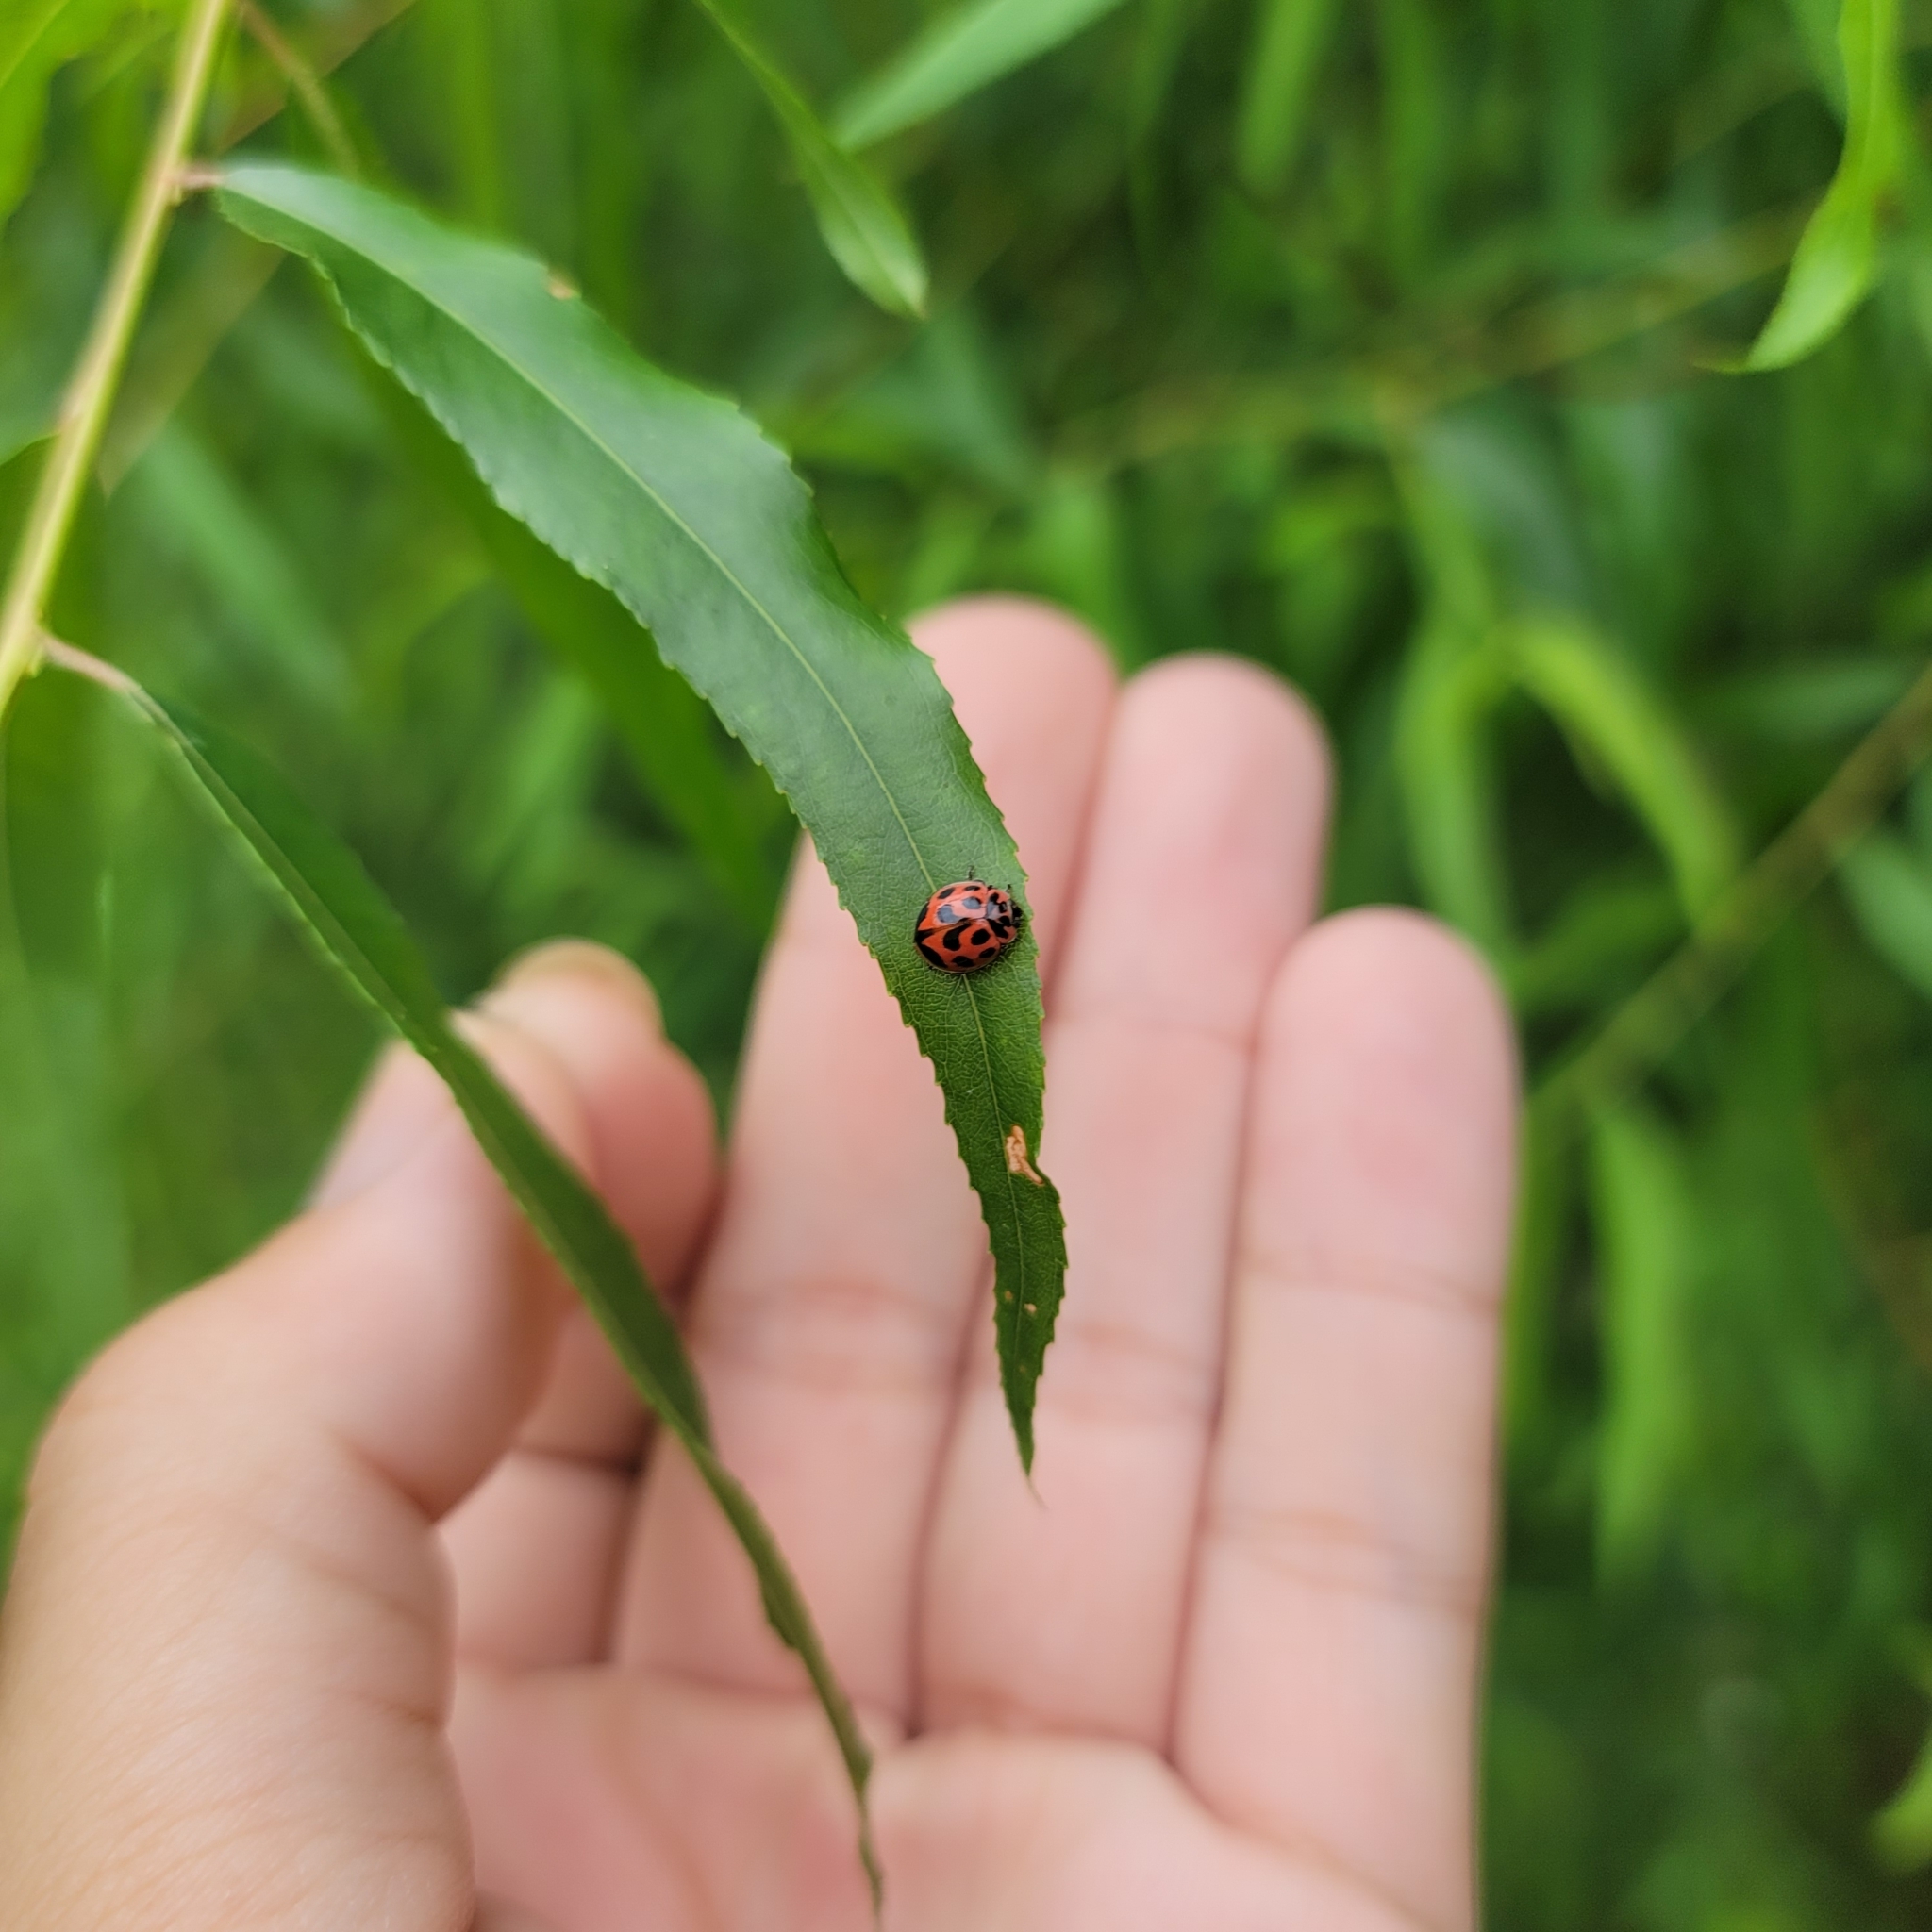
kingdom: Animalia
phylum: Arthropoda
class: Insecta
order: Coleoptera
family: Coccinellidae
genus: Neoharmonia
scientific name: Neoharmonia venusta
